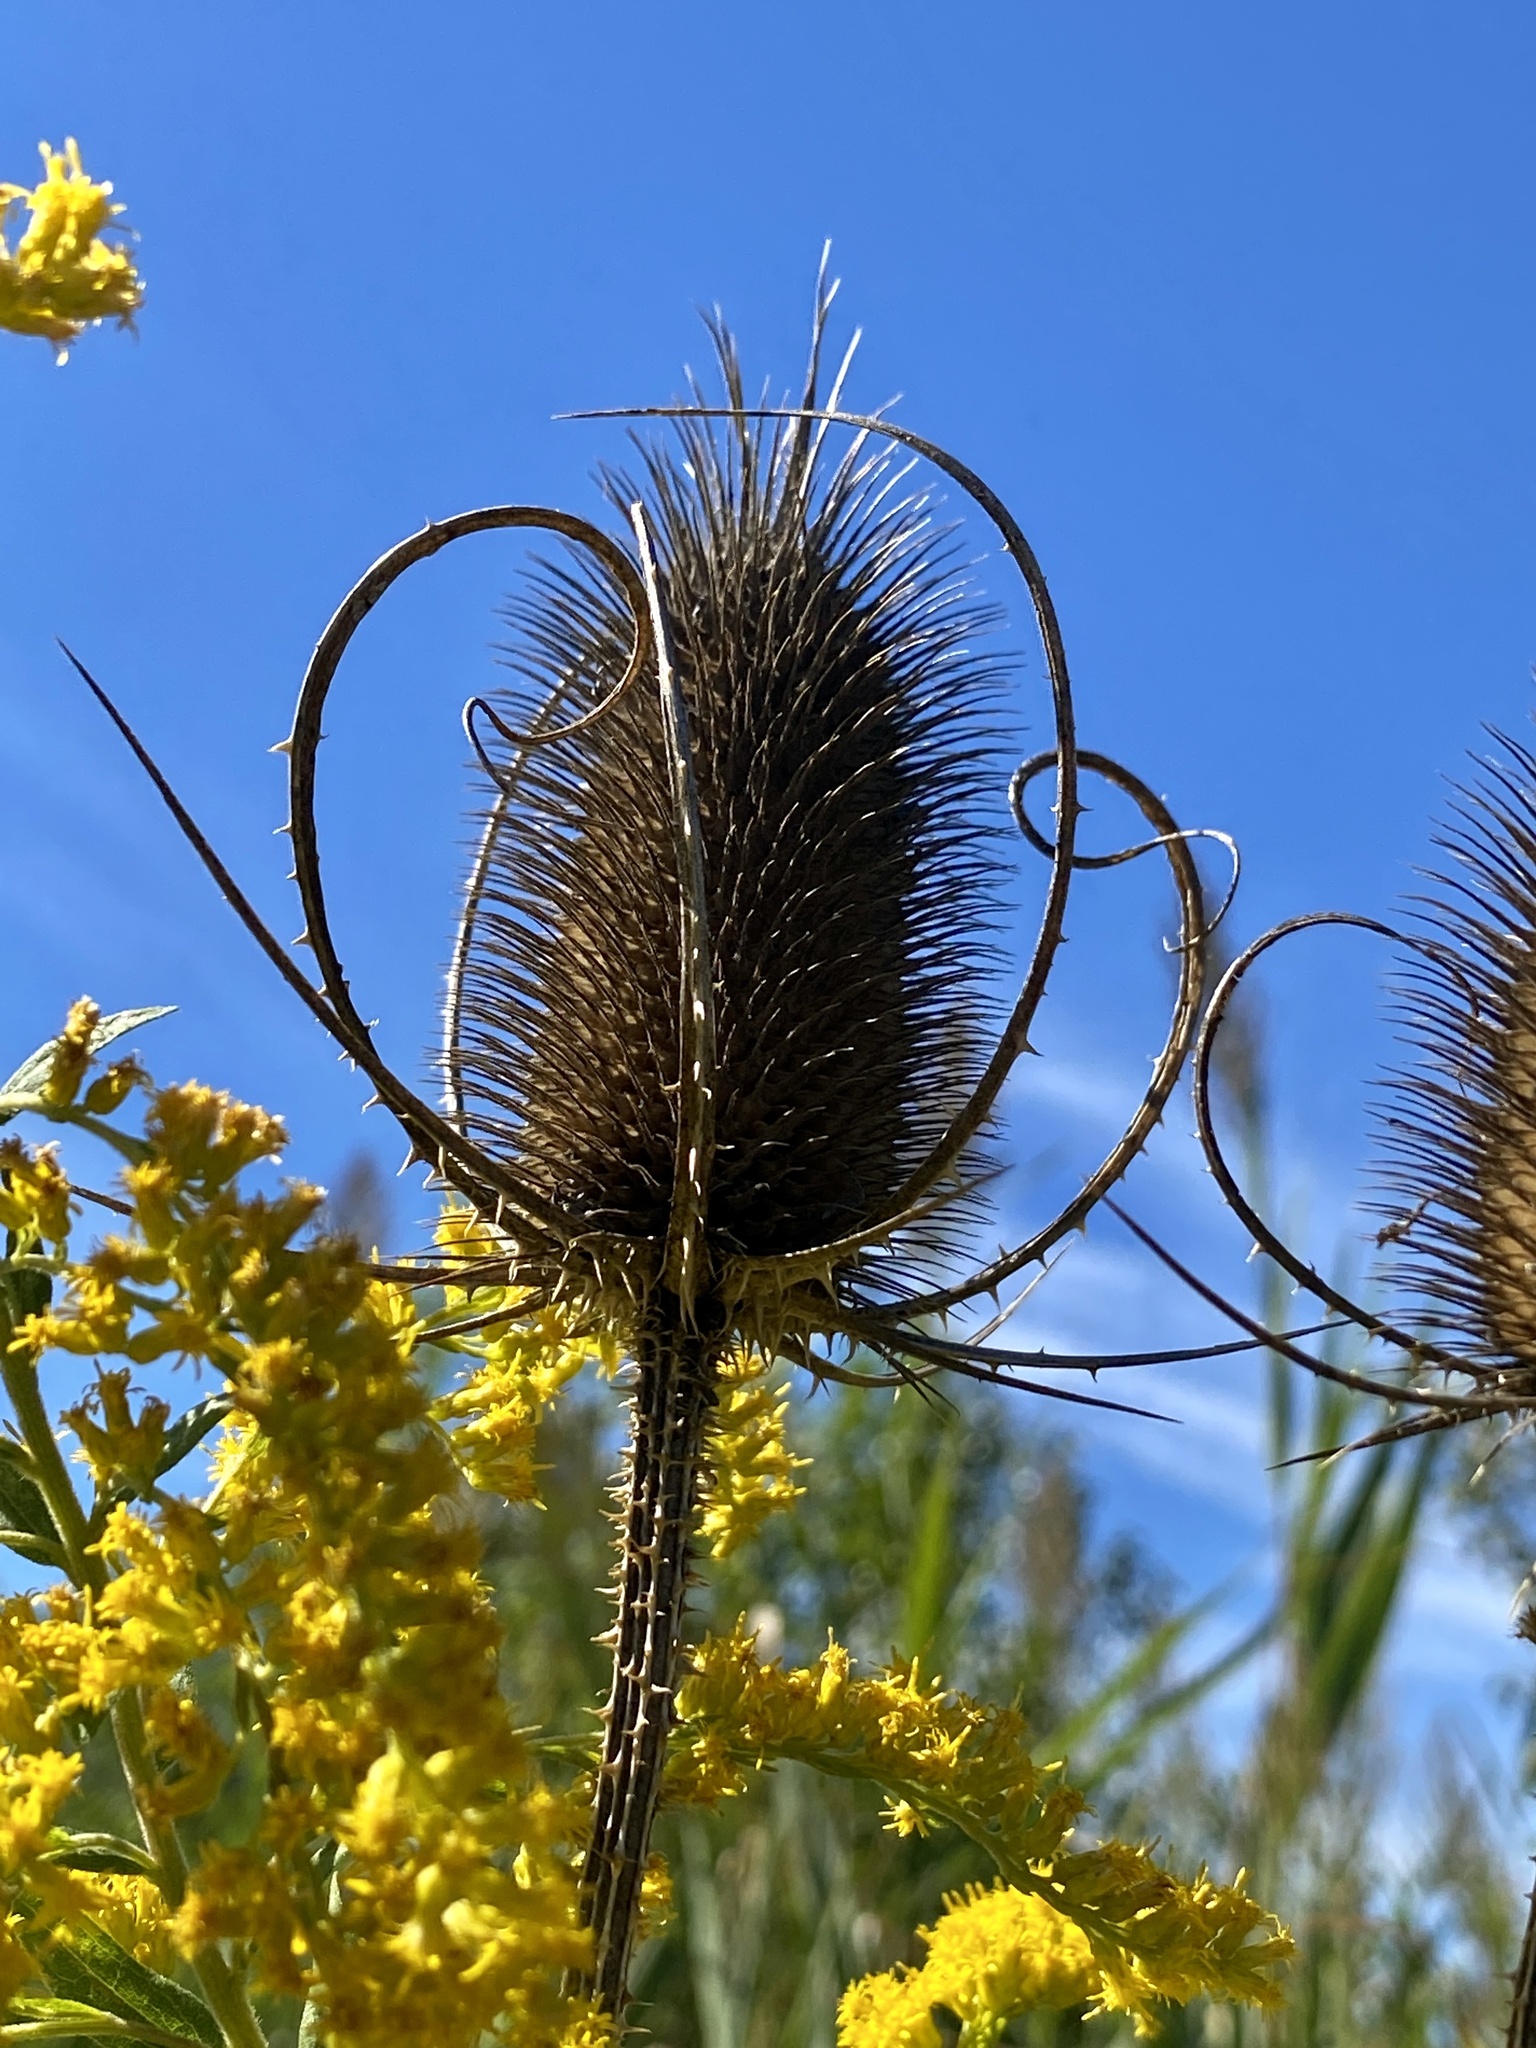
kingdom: Plantae
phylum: Tracheophyta
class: Magnoliopsida
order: Dipsacales
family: Caprifoliaceae
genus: Dipsacus
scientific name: Dipsacus fullonum
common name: Teasel
